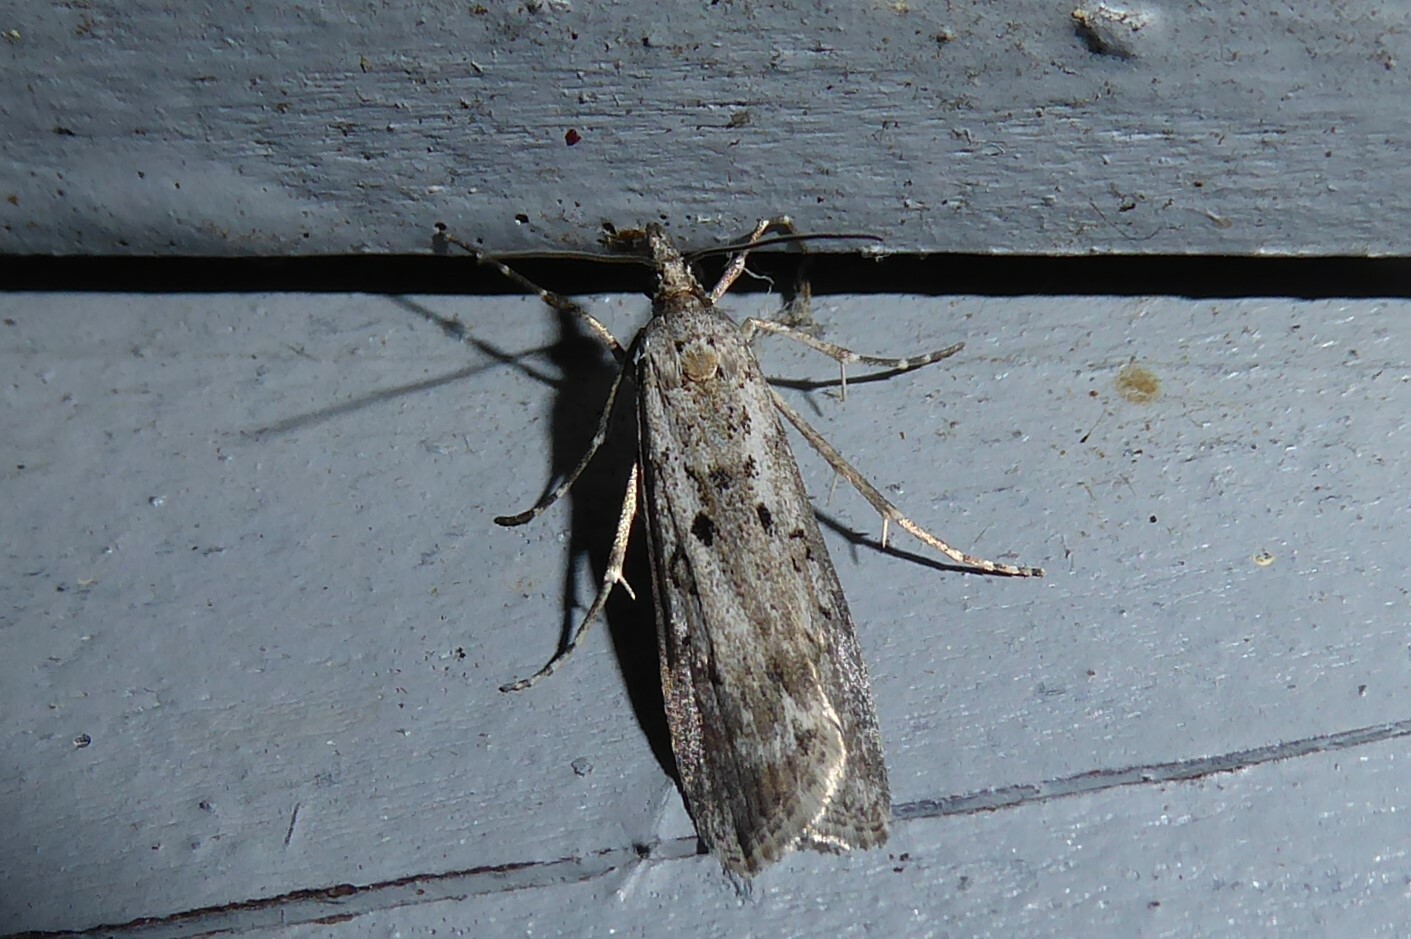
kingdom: Animalia
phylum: Arthropoda
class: Insecta
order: Lepidoptera
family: Crambidae
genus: Eudonia
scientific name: Eudonia leptalea
